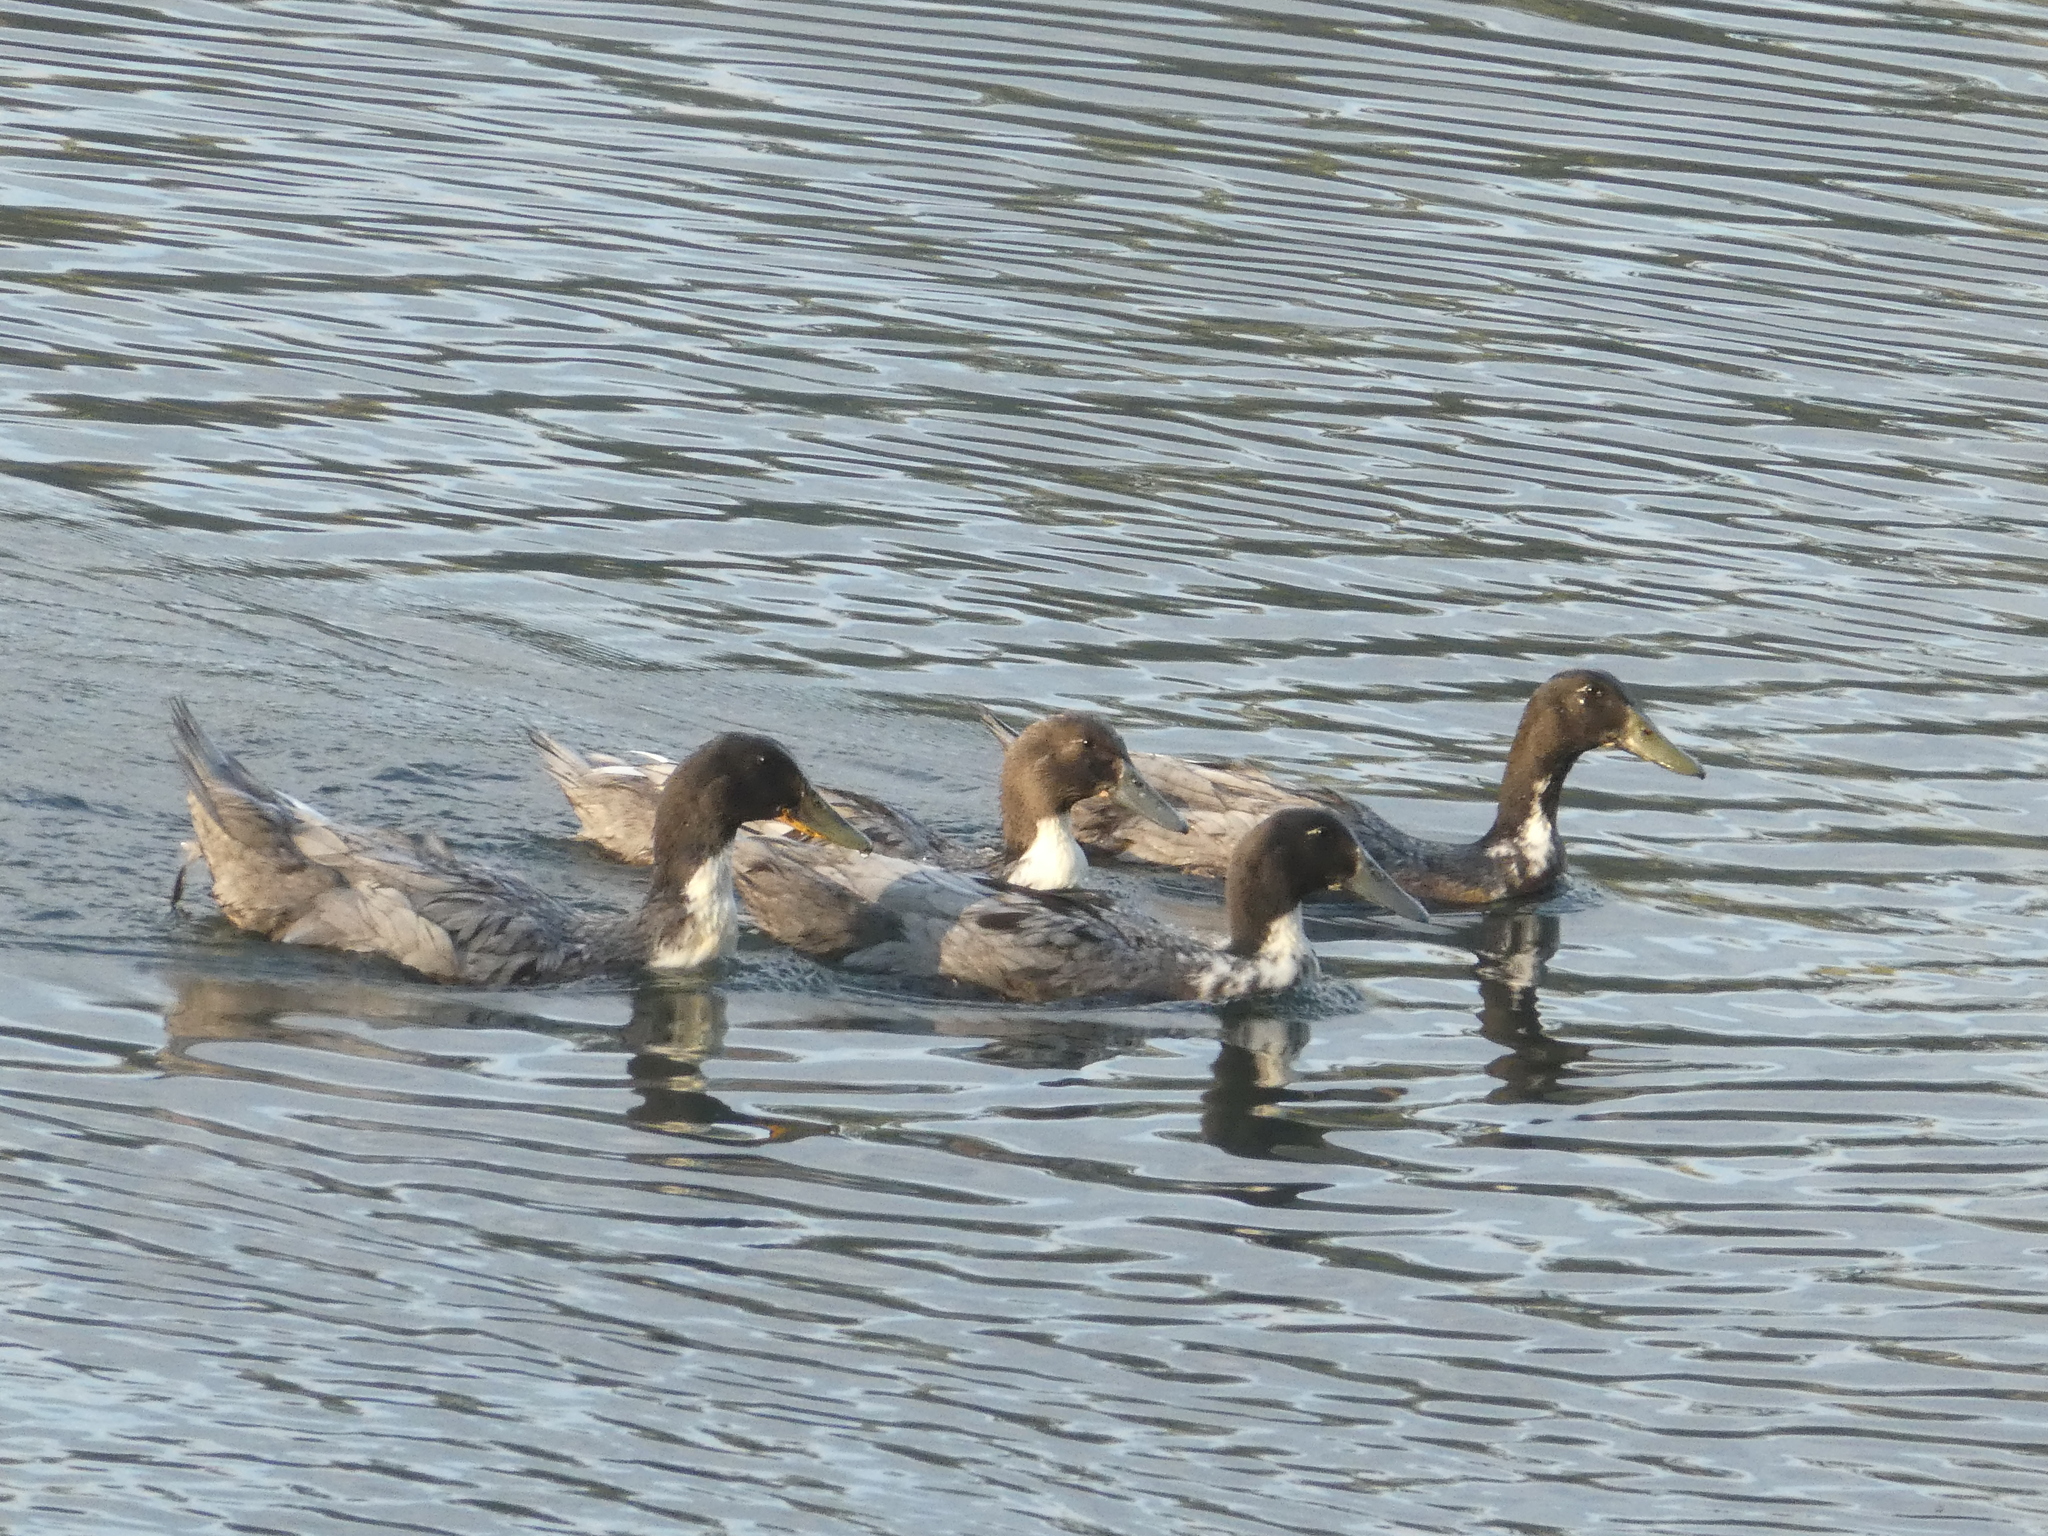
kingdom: Animalia
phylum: Chordata
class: Aves
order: Anseriformes
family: Anatidae
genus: Anas
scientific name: Anas platyrhynchos
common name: Mallard
